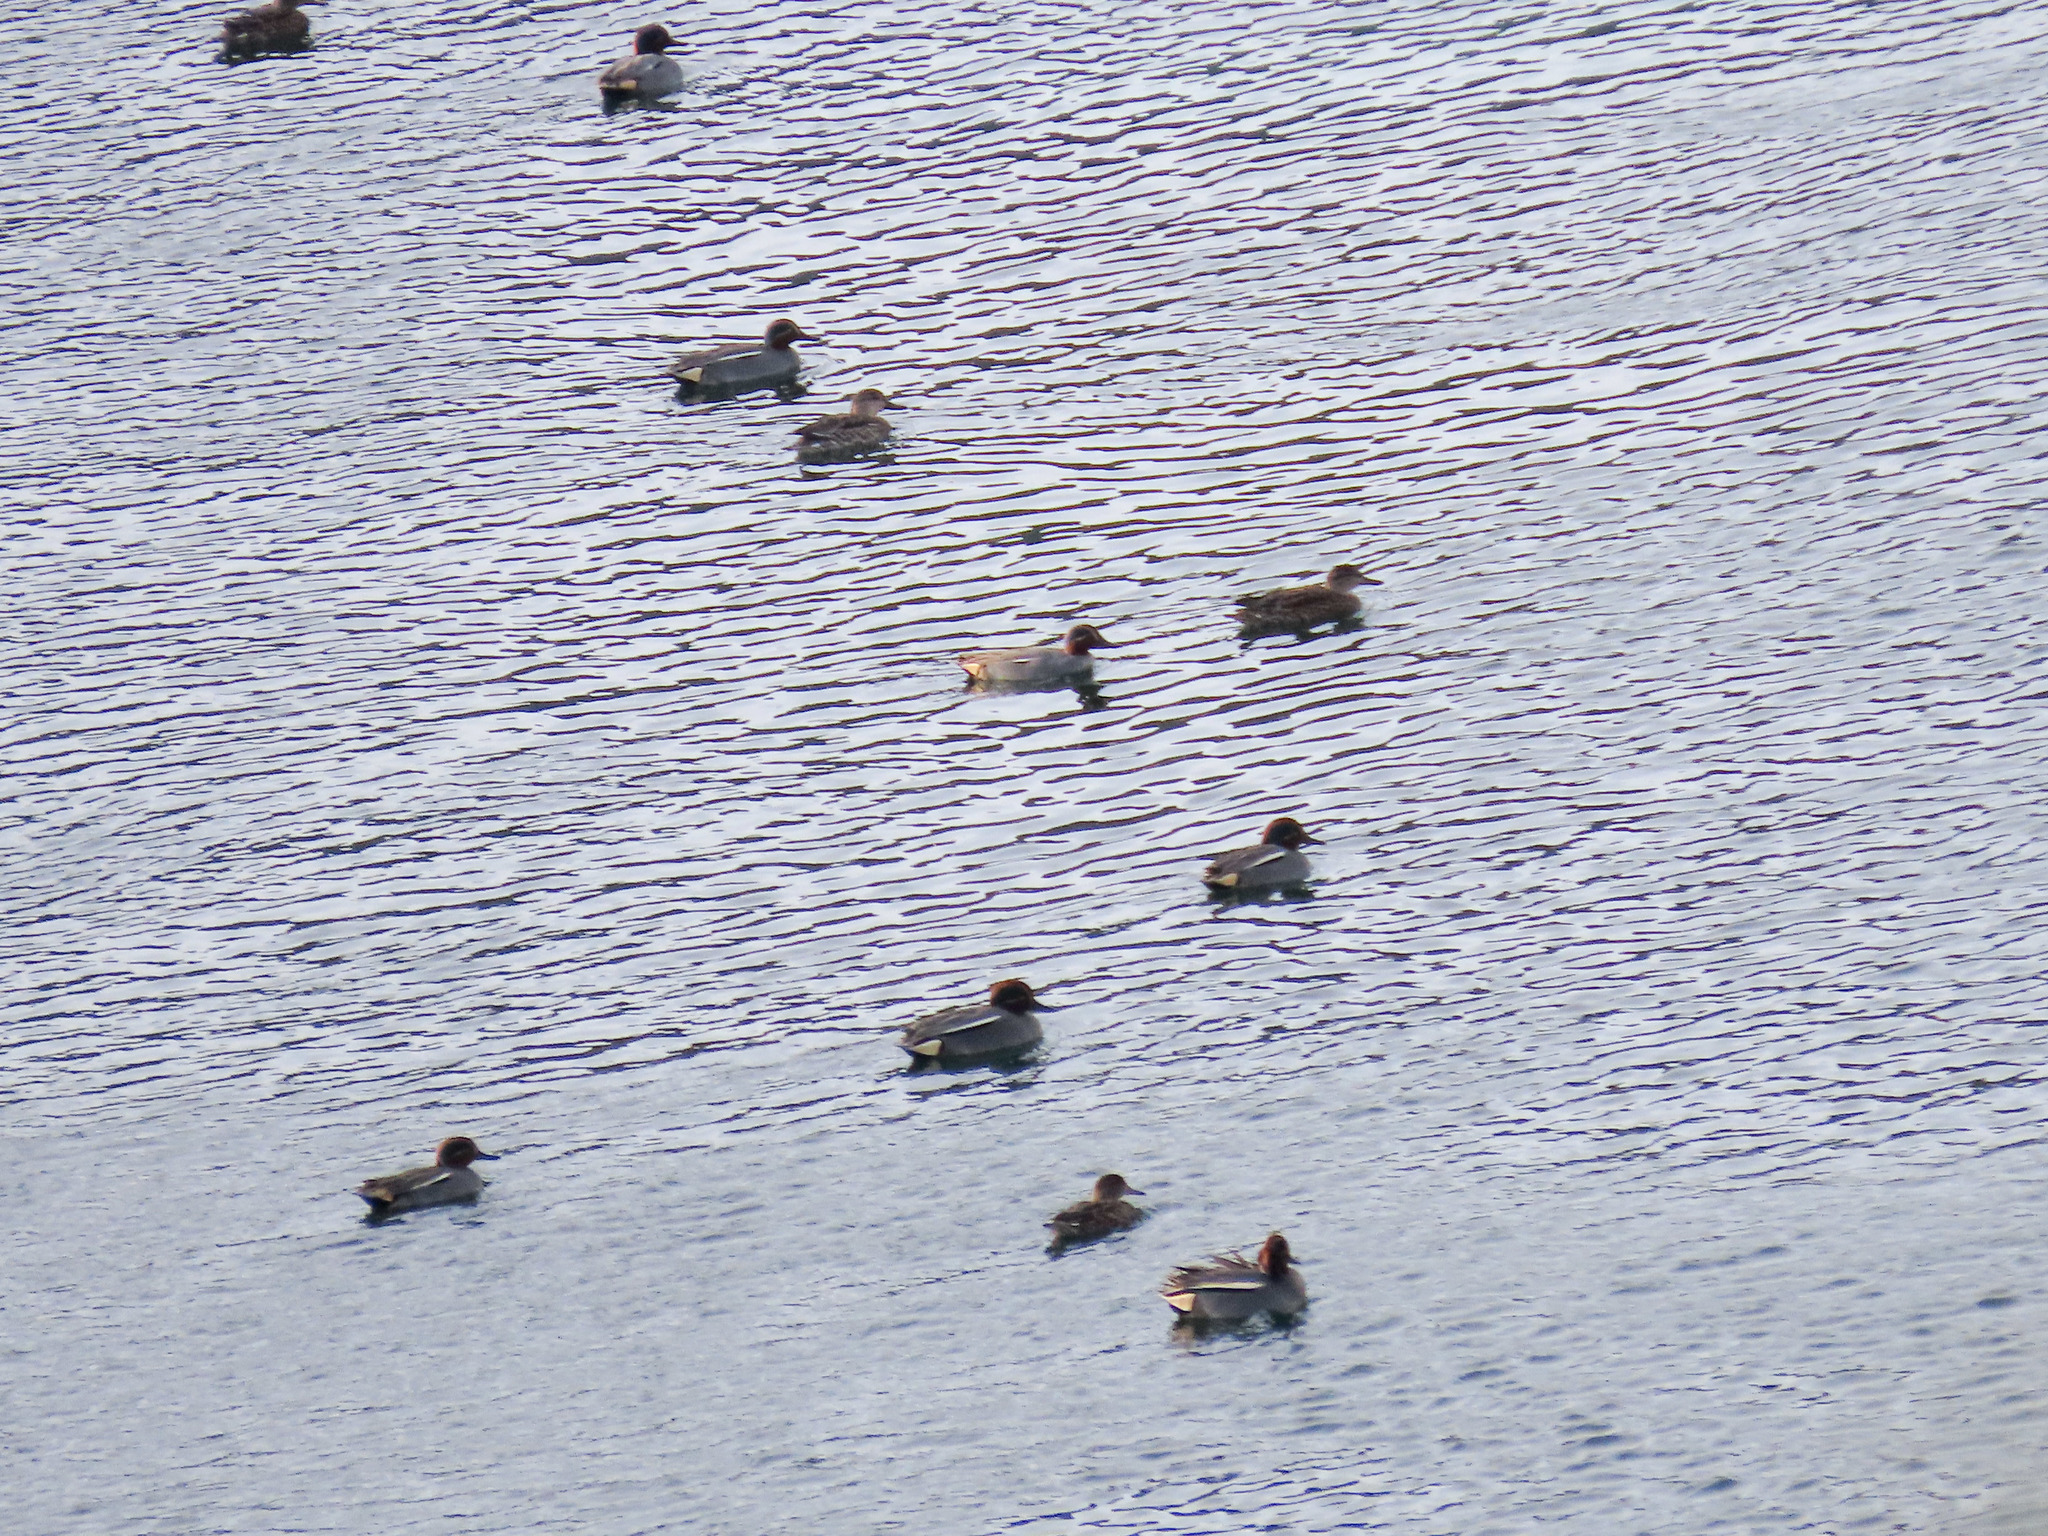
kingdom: Animalia
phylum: Chordata
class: Aves
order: Anseriformes
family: Anatidae
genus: Anas
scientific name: Anas crecca
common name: Eurasian teal
